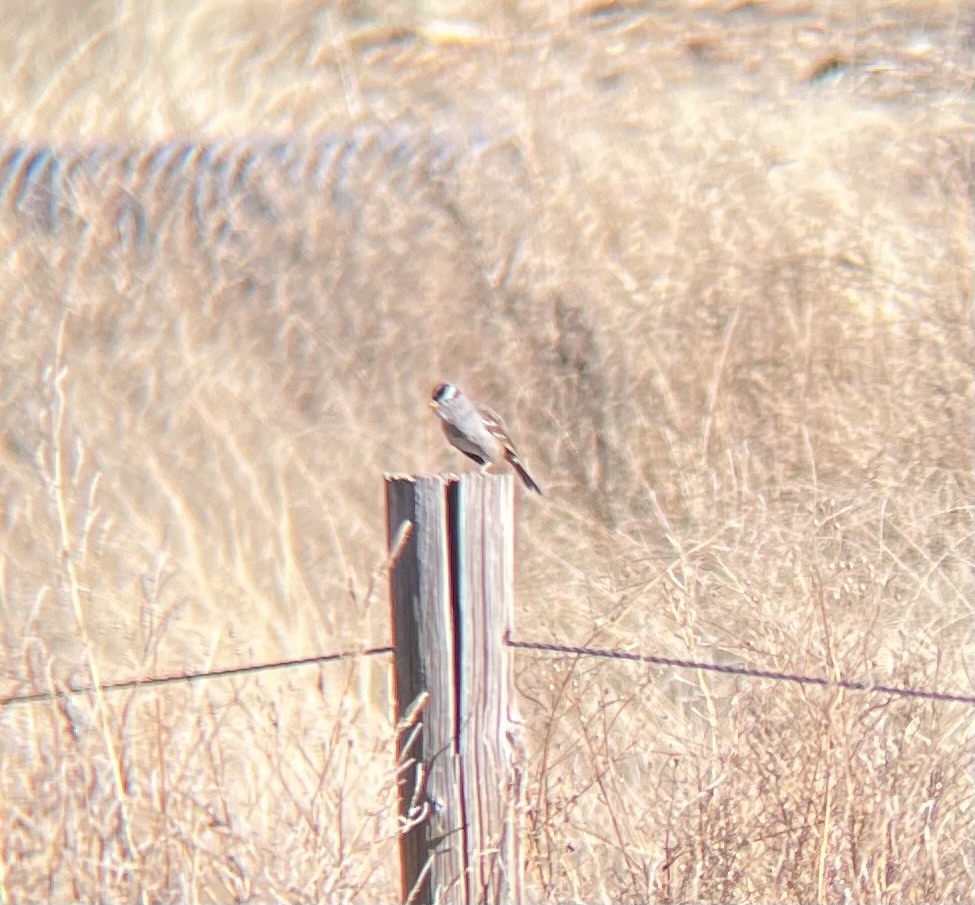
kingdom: Animalia
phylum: Chordata
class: Aves
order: Passeriformes
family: Passerellidae
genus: Zonotrichia
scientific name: Zonotrichia leucophrys
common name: White-crowned sparrow
